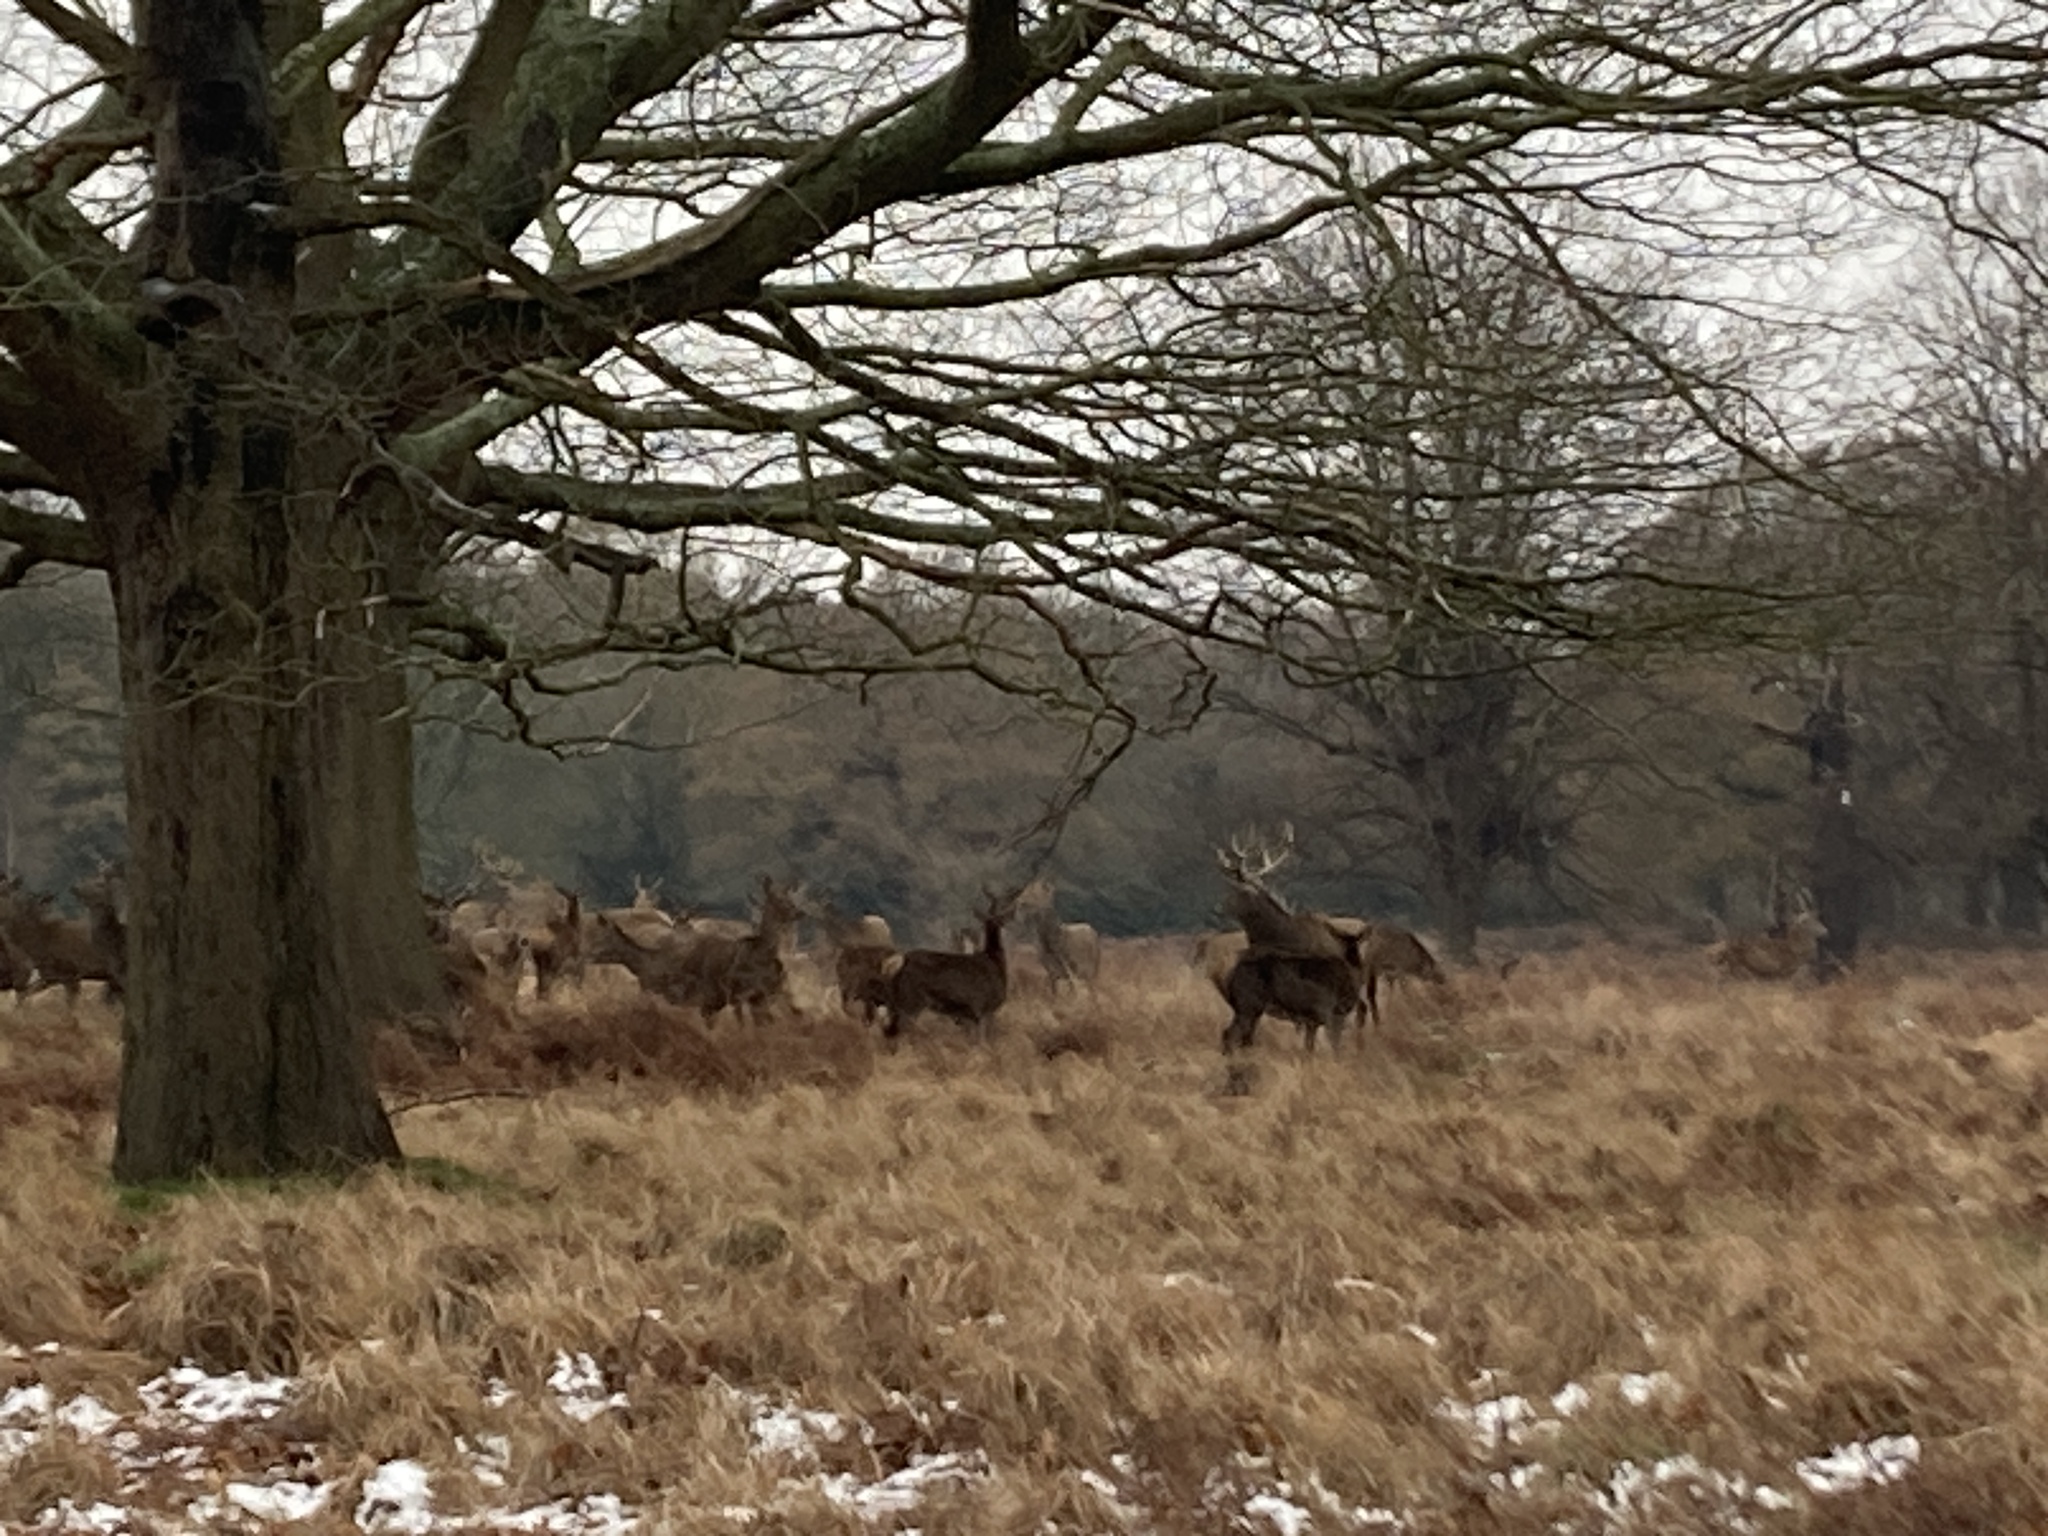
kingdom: Animalia
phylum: Chordata
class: Mammalia
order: Artiodactyla
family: Cervidae
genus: Cervus
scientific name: Cervus elaphus
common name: Red deer
